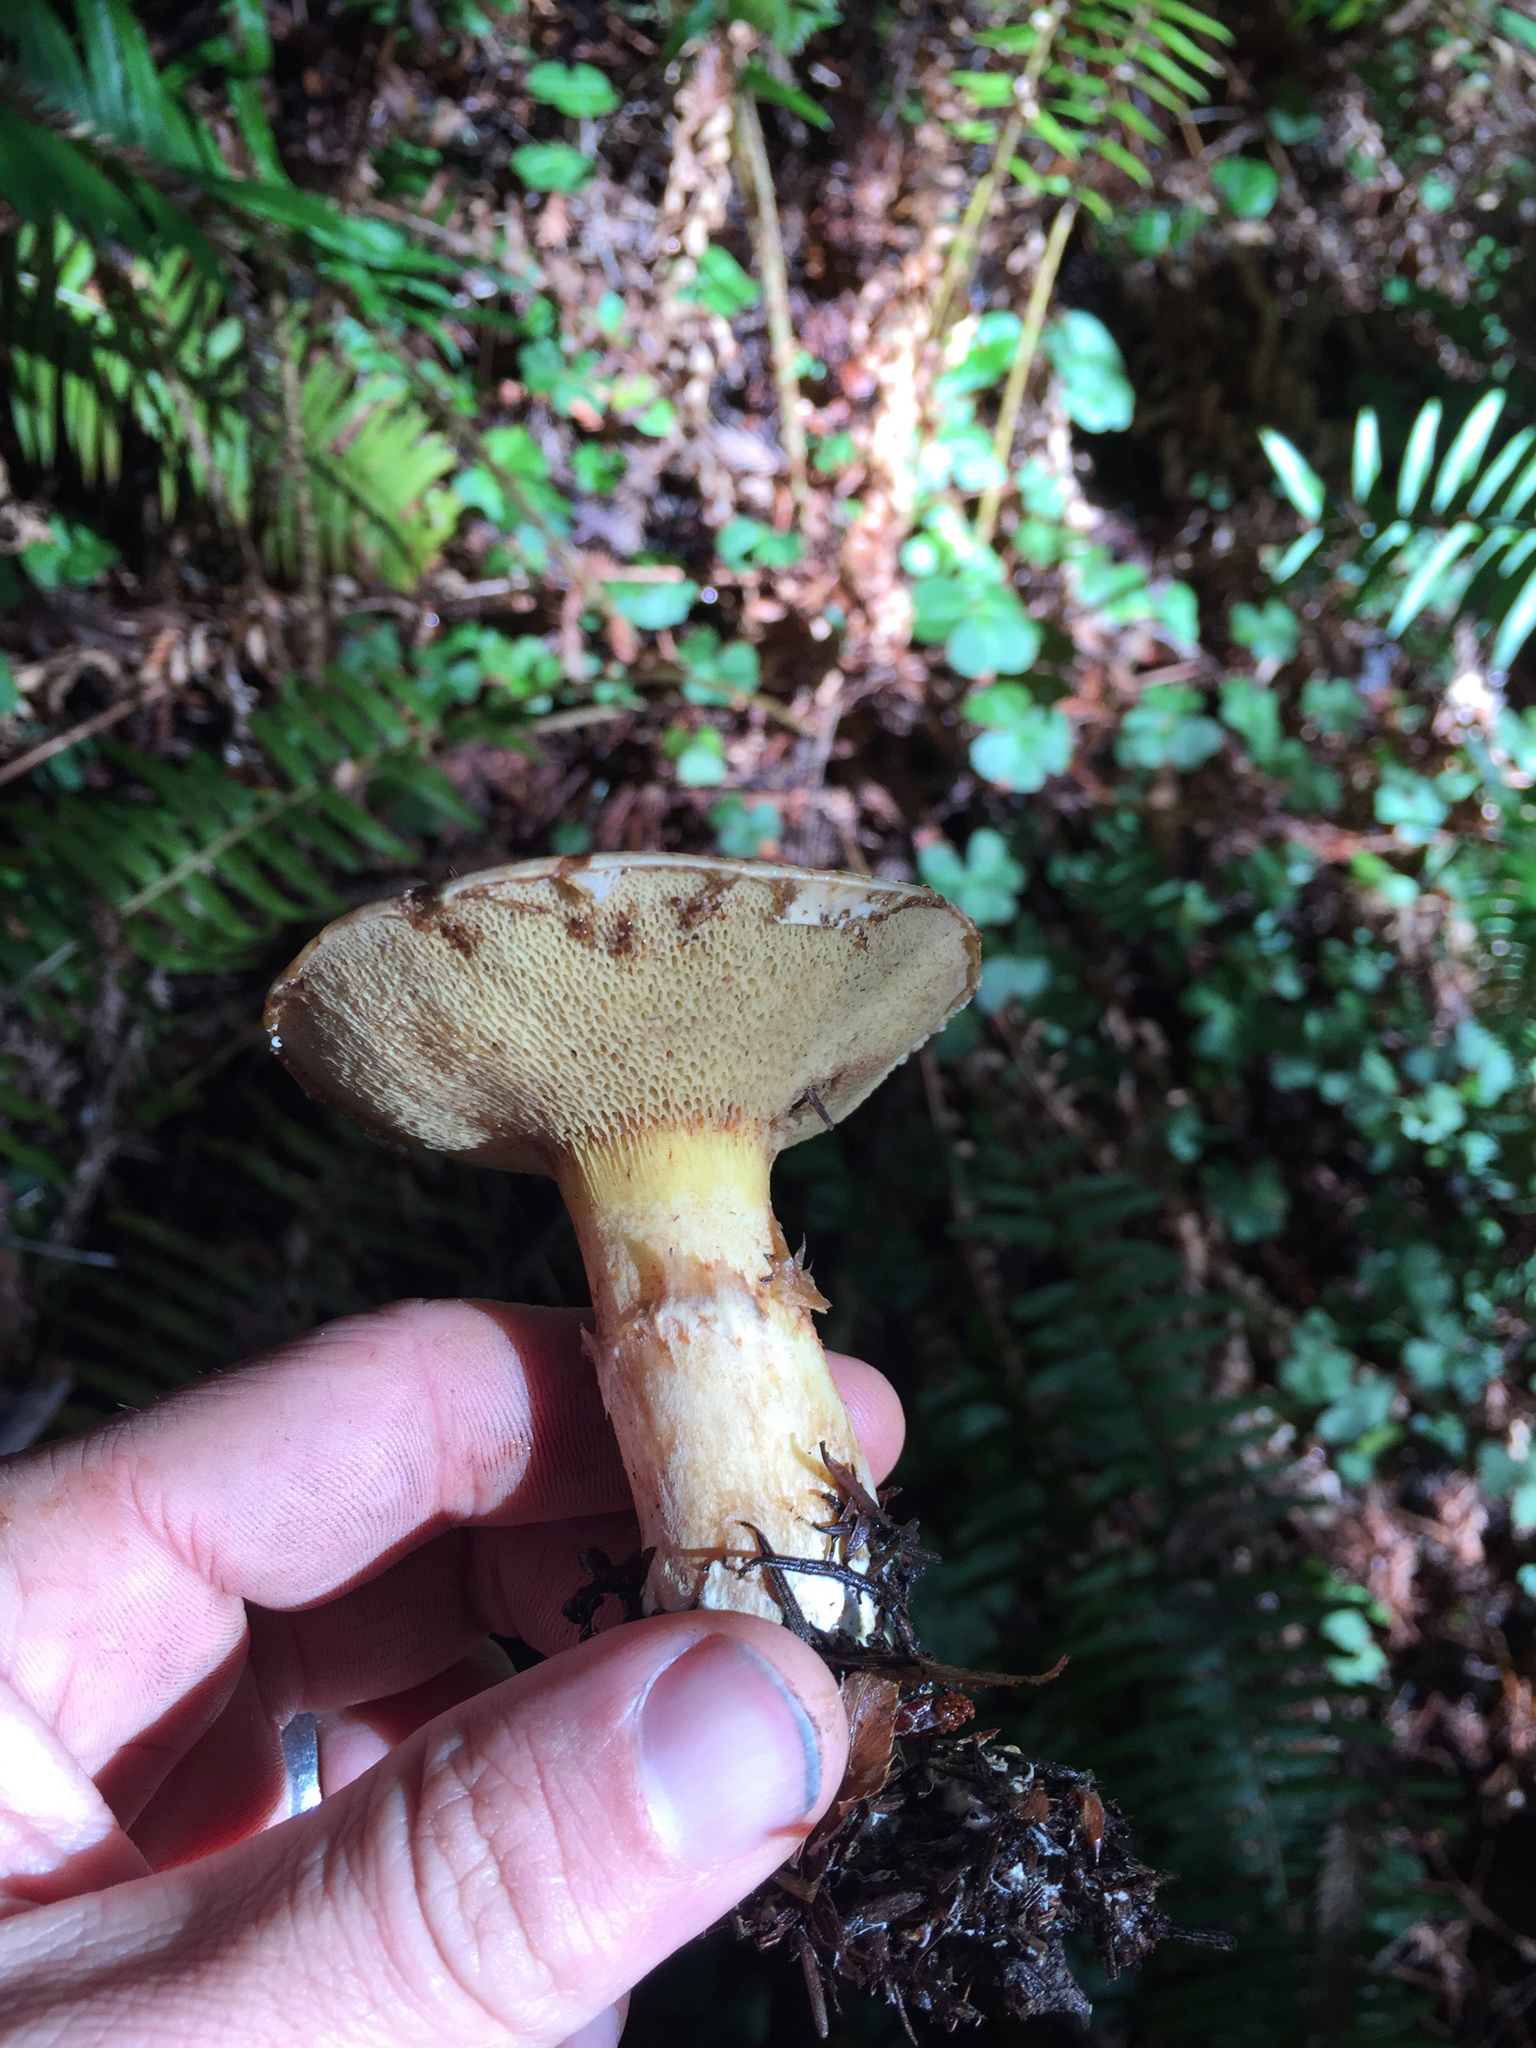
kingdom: Fungi
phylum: Basidiomycota
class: Agaricomycetes
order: Boletales
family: Suillaceae
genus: Suillus
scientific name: Suillus caerulescens
